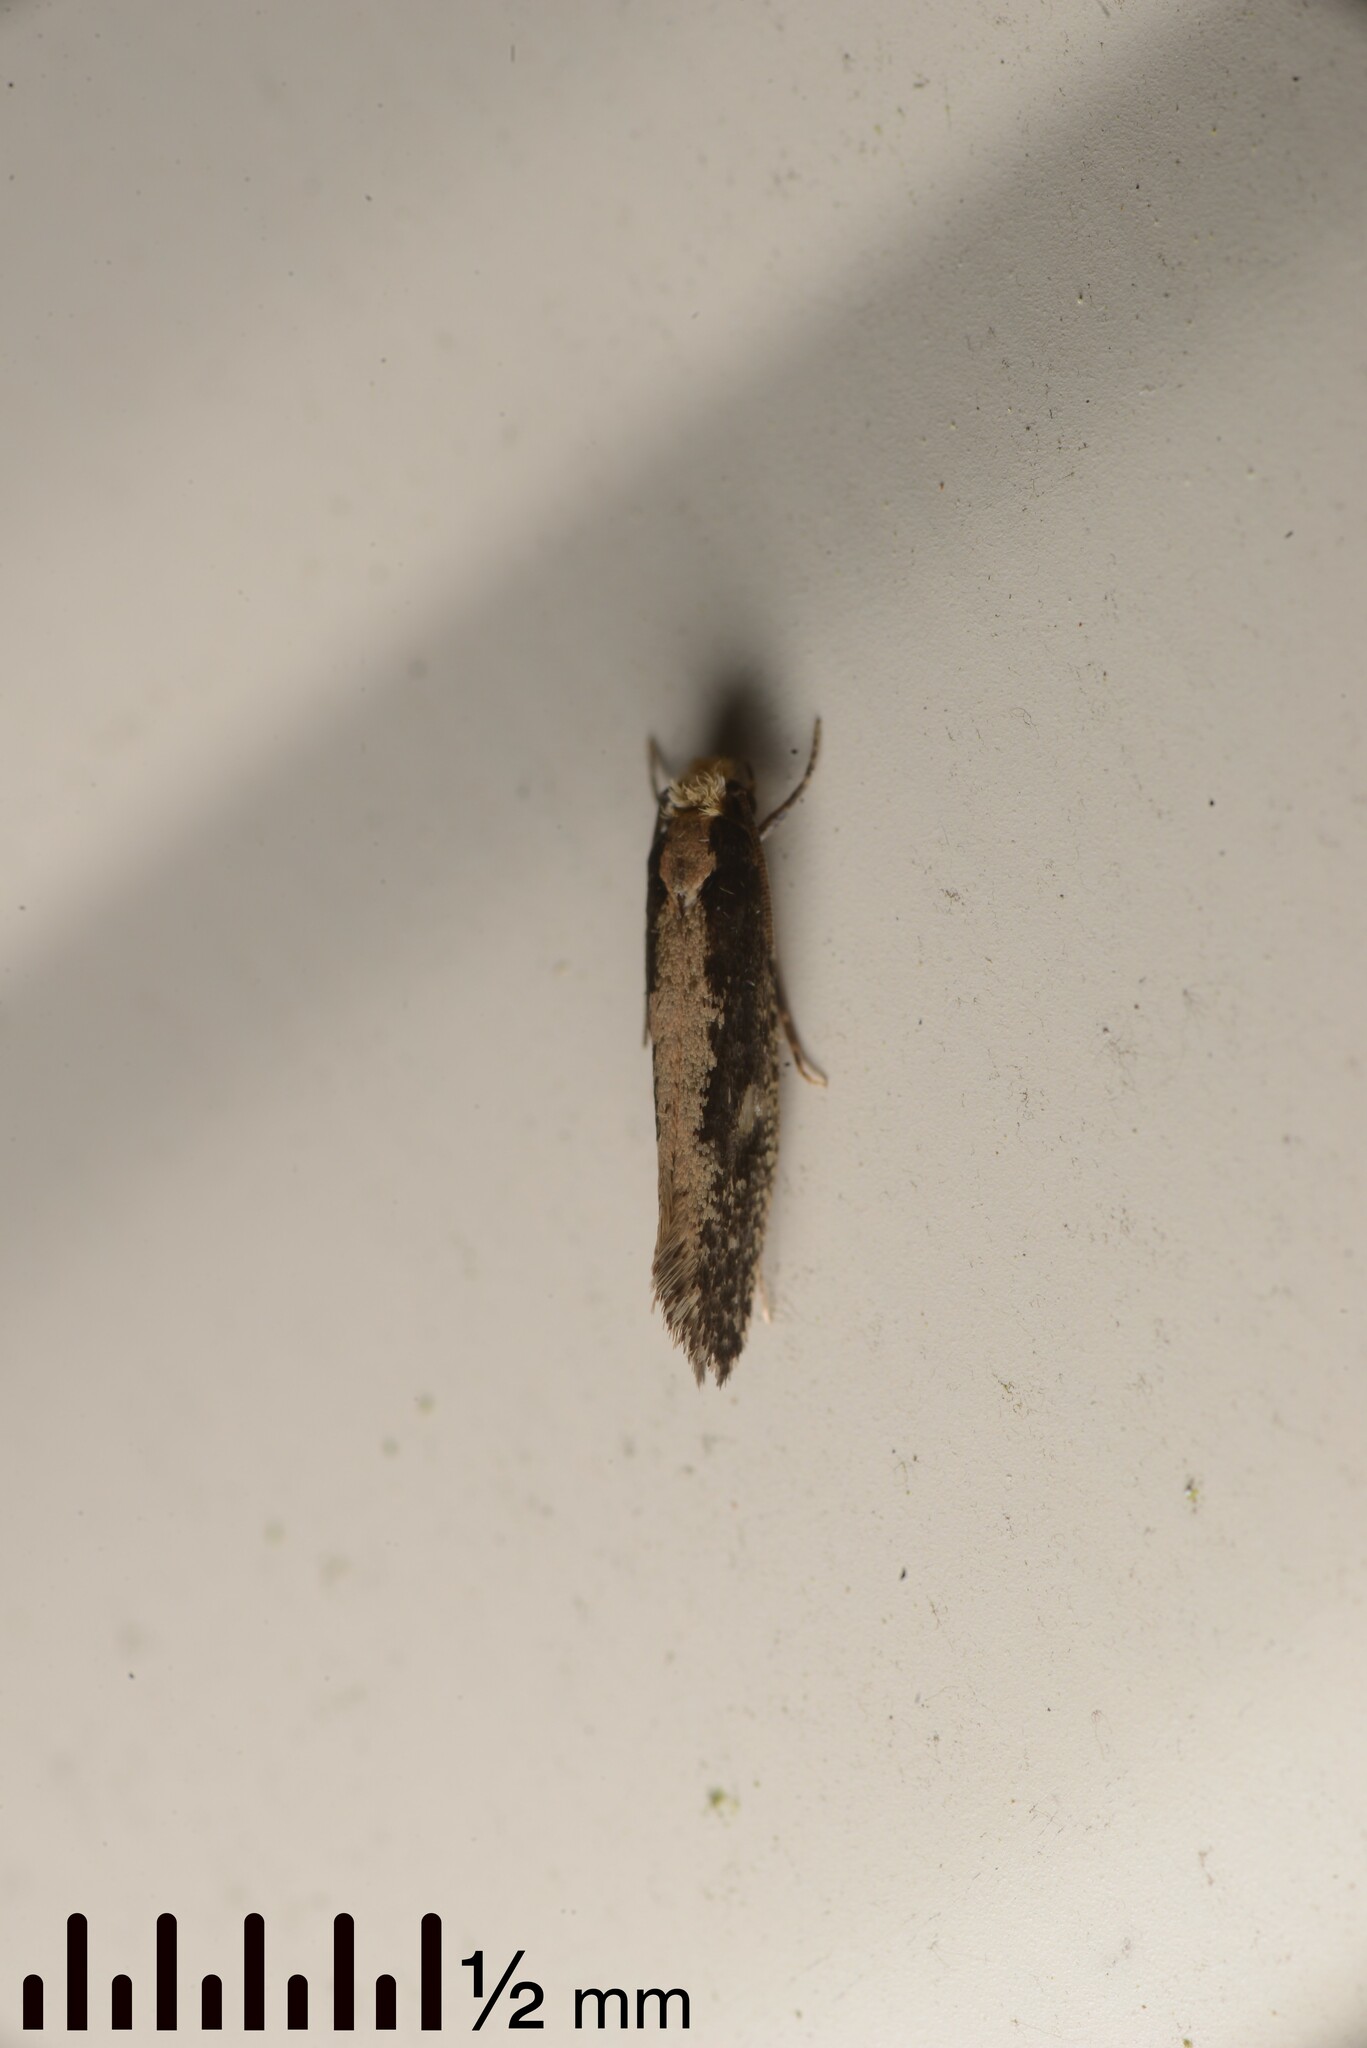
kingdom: Animalia
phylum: Arthropoda
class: Insecta
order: Lepidoptera
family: Tineidae
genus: Monopis
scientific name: Monopis crocicapitella
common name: Moth
